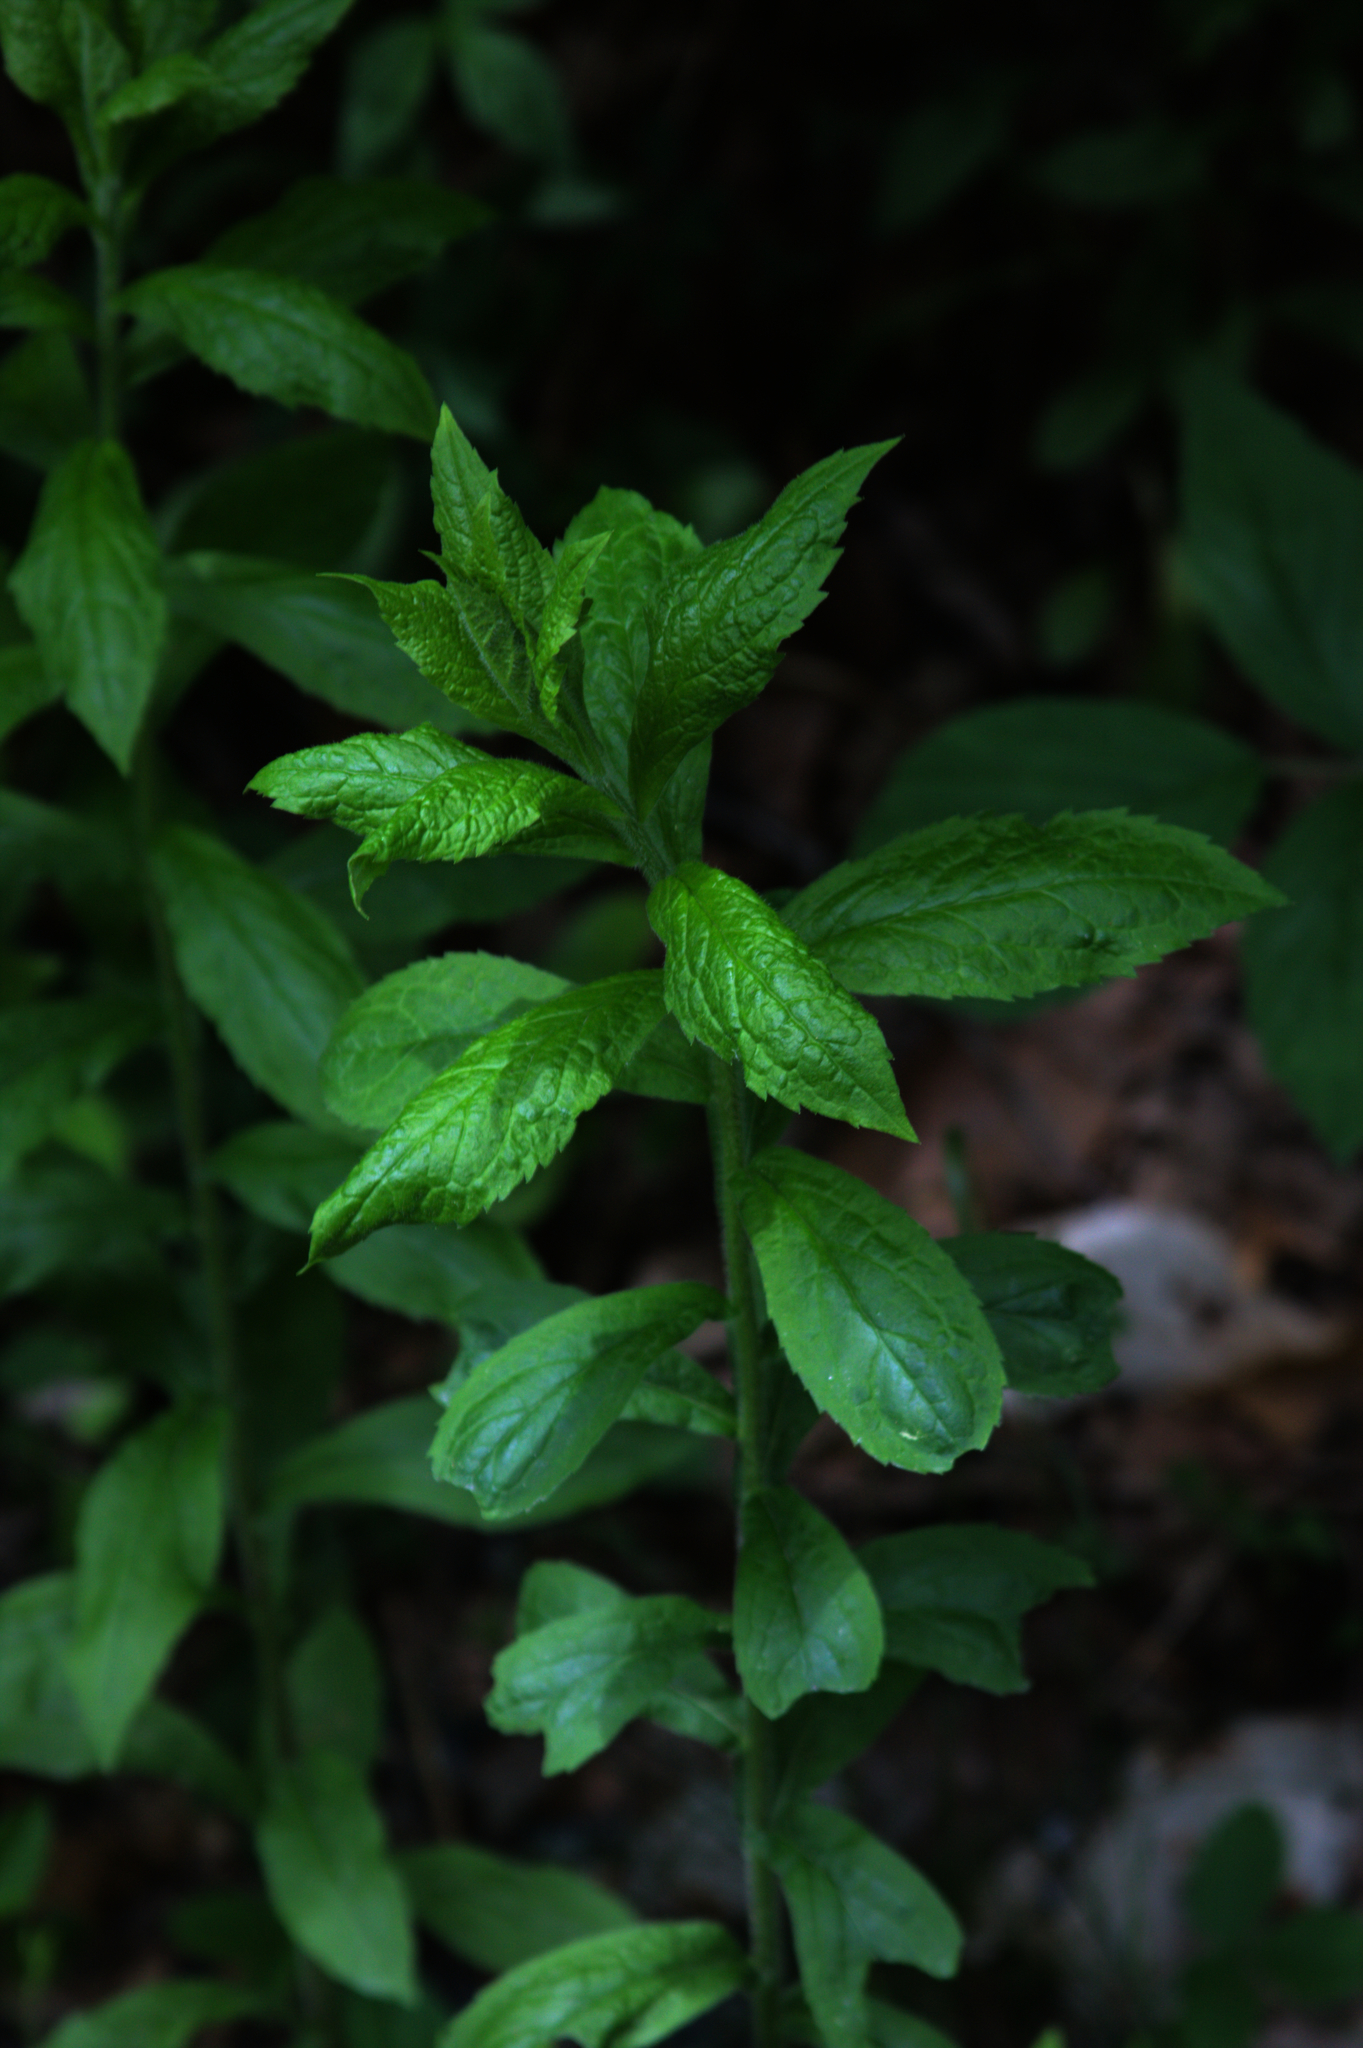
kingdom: Plantae
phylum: Tracheophyta
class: Magnoliopsida
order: Asterales
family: Asteraceae
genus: Solidago
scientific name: Solidago rugosa
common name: Rough-stemmed goldenrod
